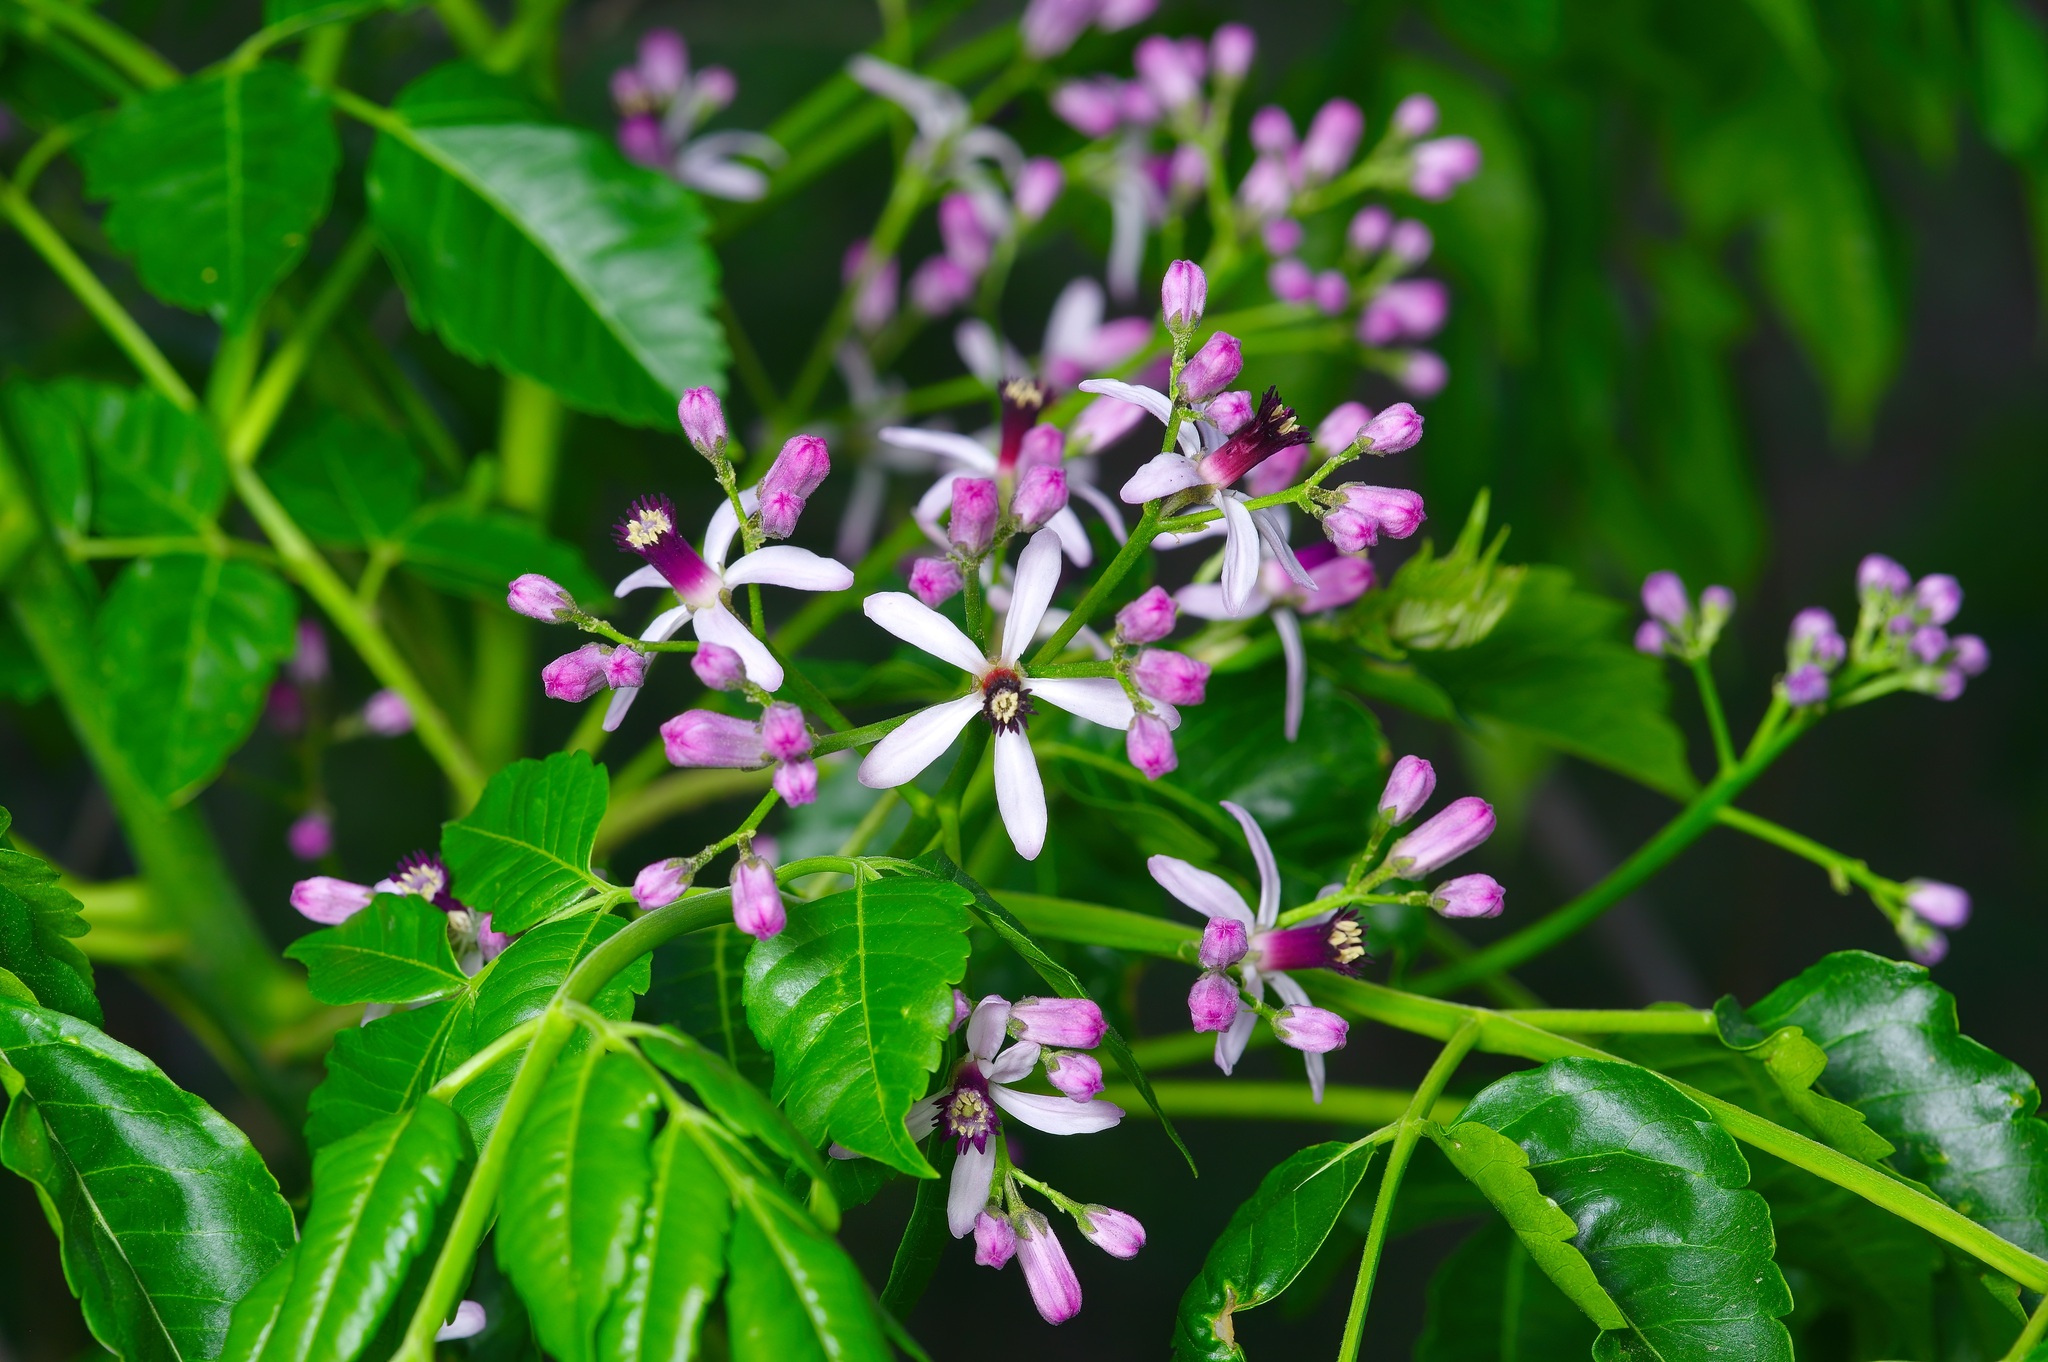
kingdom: Plantae
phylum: Tracheophyta
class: Magnoliopsida
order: Sapindales
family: Meliaceae
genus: Melia
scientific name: Melia azedarach
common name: Chinaberrytree
